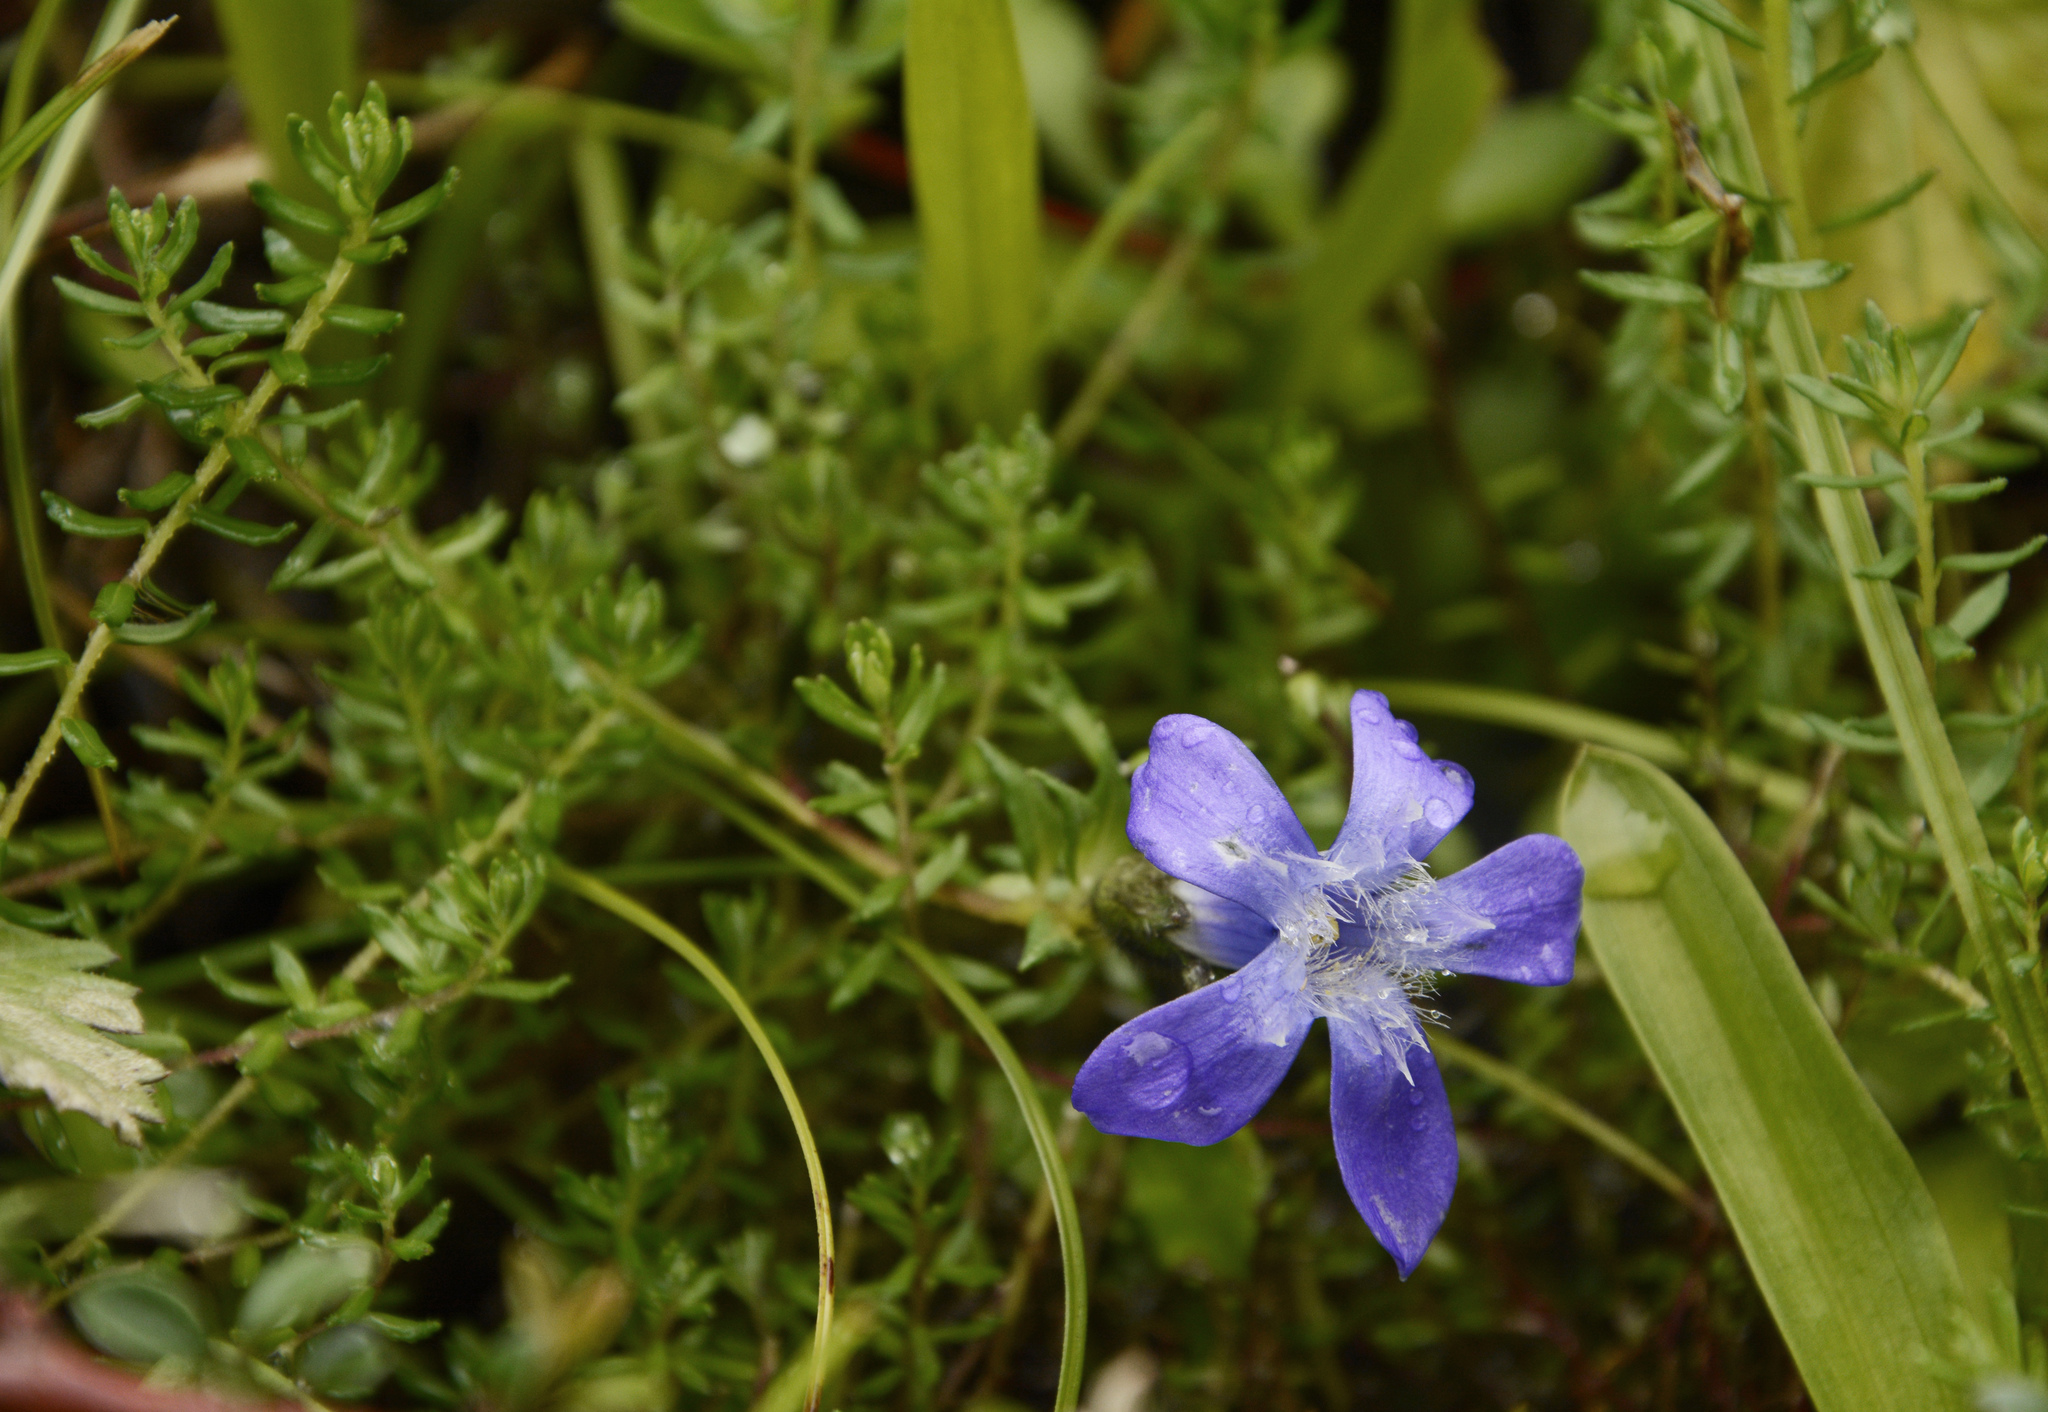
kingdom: Plantae
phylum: Tracheophyta
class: Magnoliopsida
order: Asterales
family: Campanulaceae
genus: Cyananthus
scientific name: Cyananthus microphyllus
